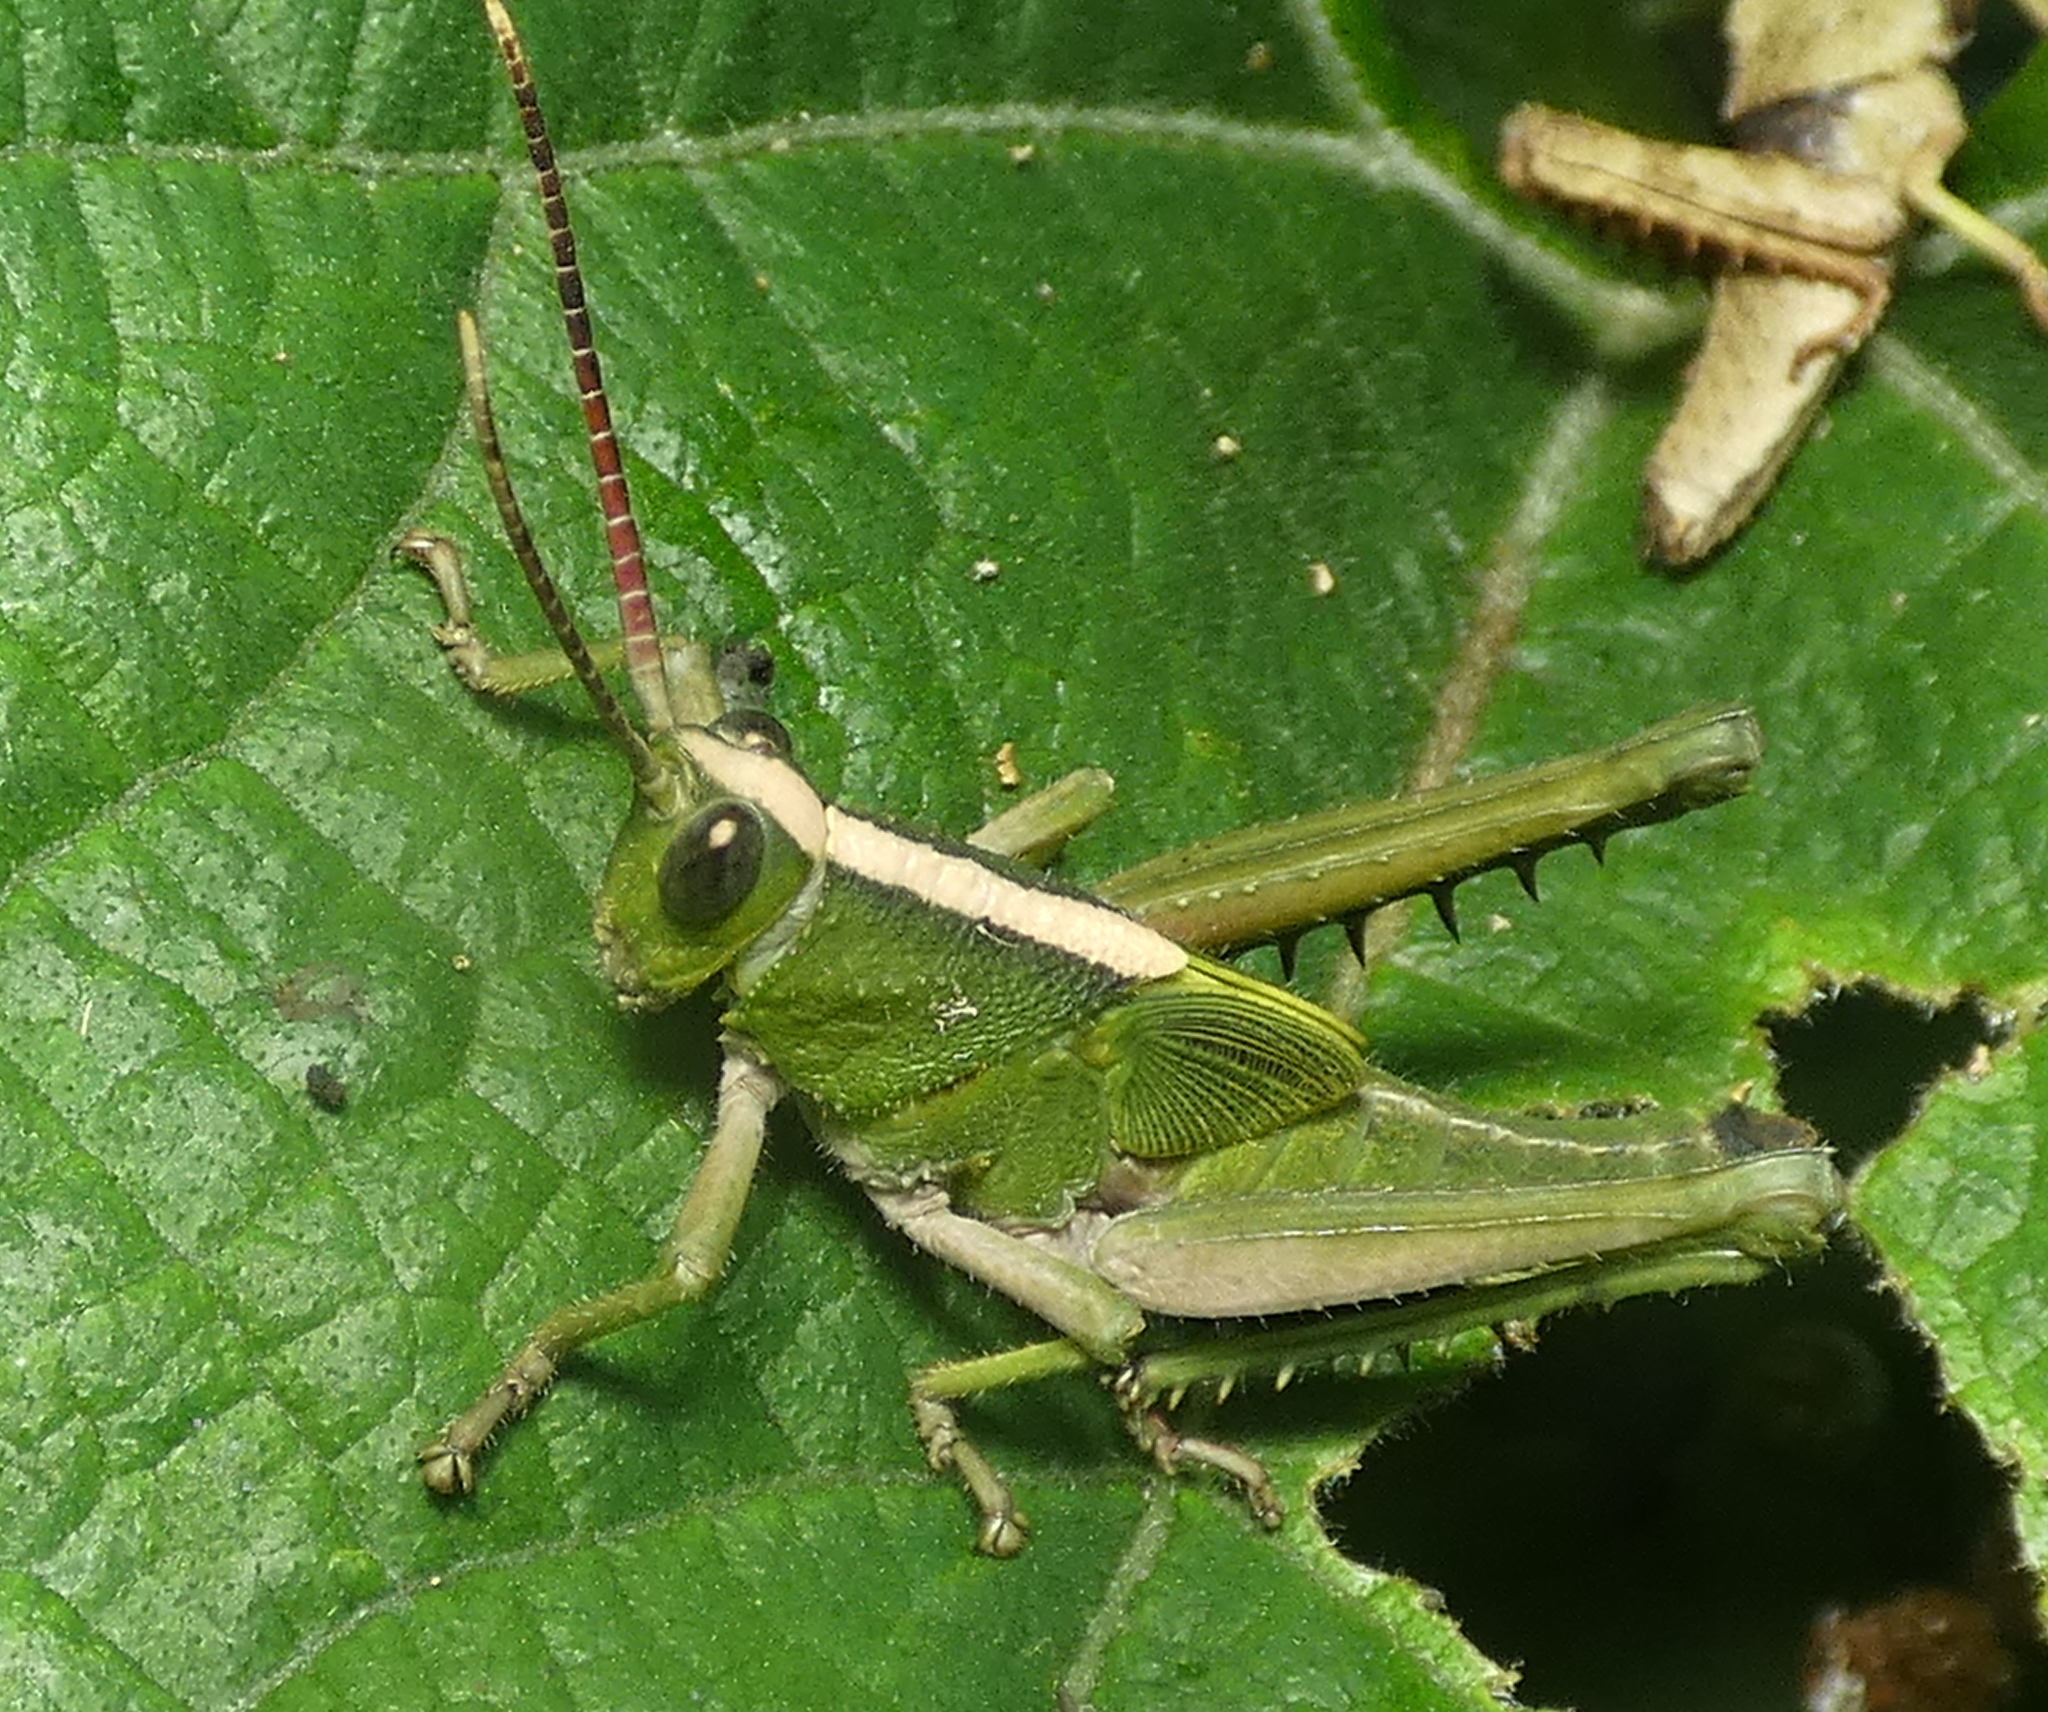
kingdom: Animalia
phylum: Arthropoda
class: Insecta
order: Orthoptera
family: Romaleidae
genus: Agriacris
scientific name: Agriacris auripennis
